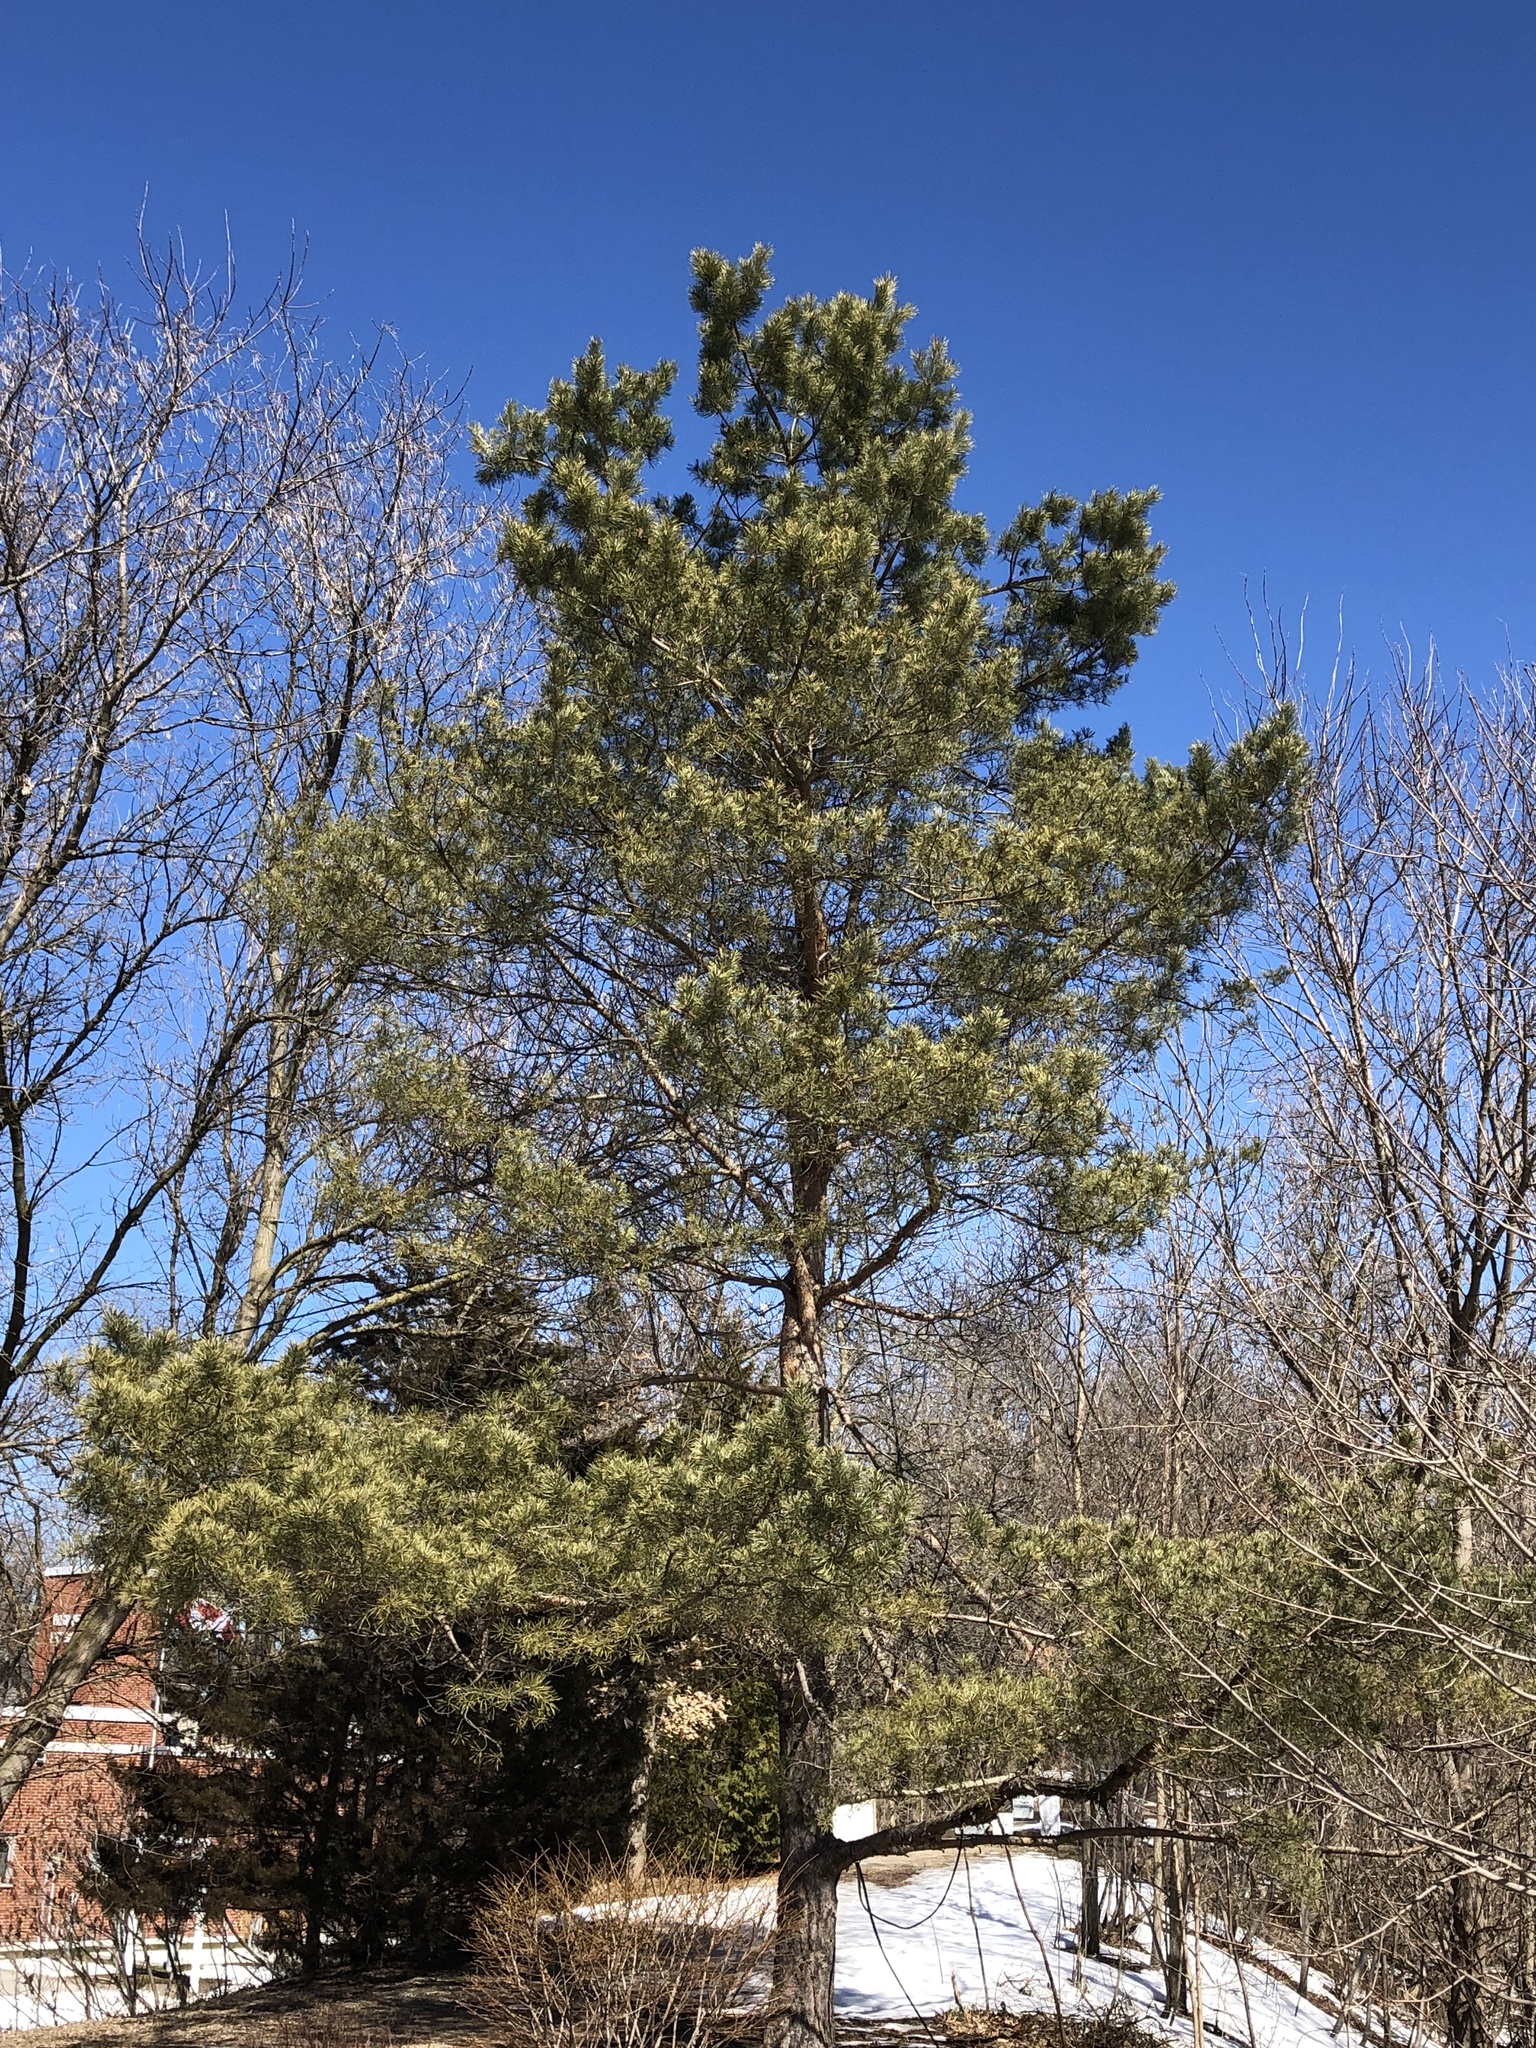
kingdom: Plantae
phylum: Tracheophyta
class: Pinopsida
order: Pinales
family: Pinaceae
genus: Pinus
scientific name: Pinus sylvestris
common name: Scots pine
